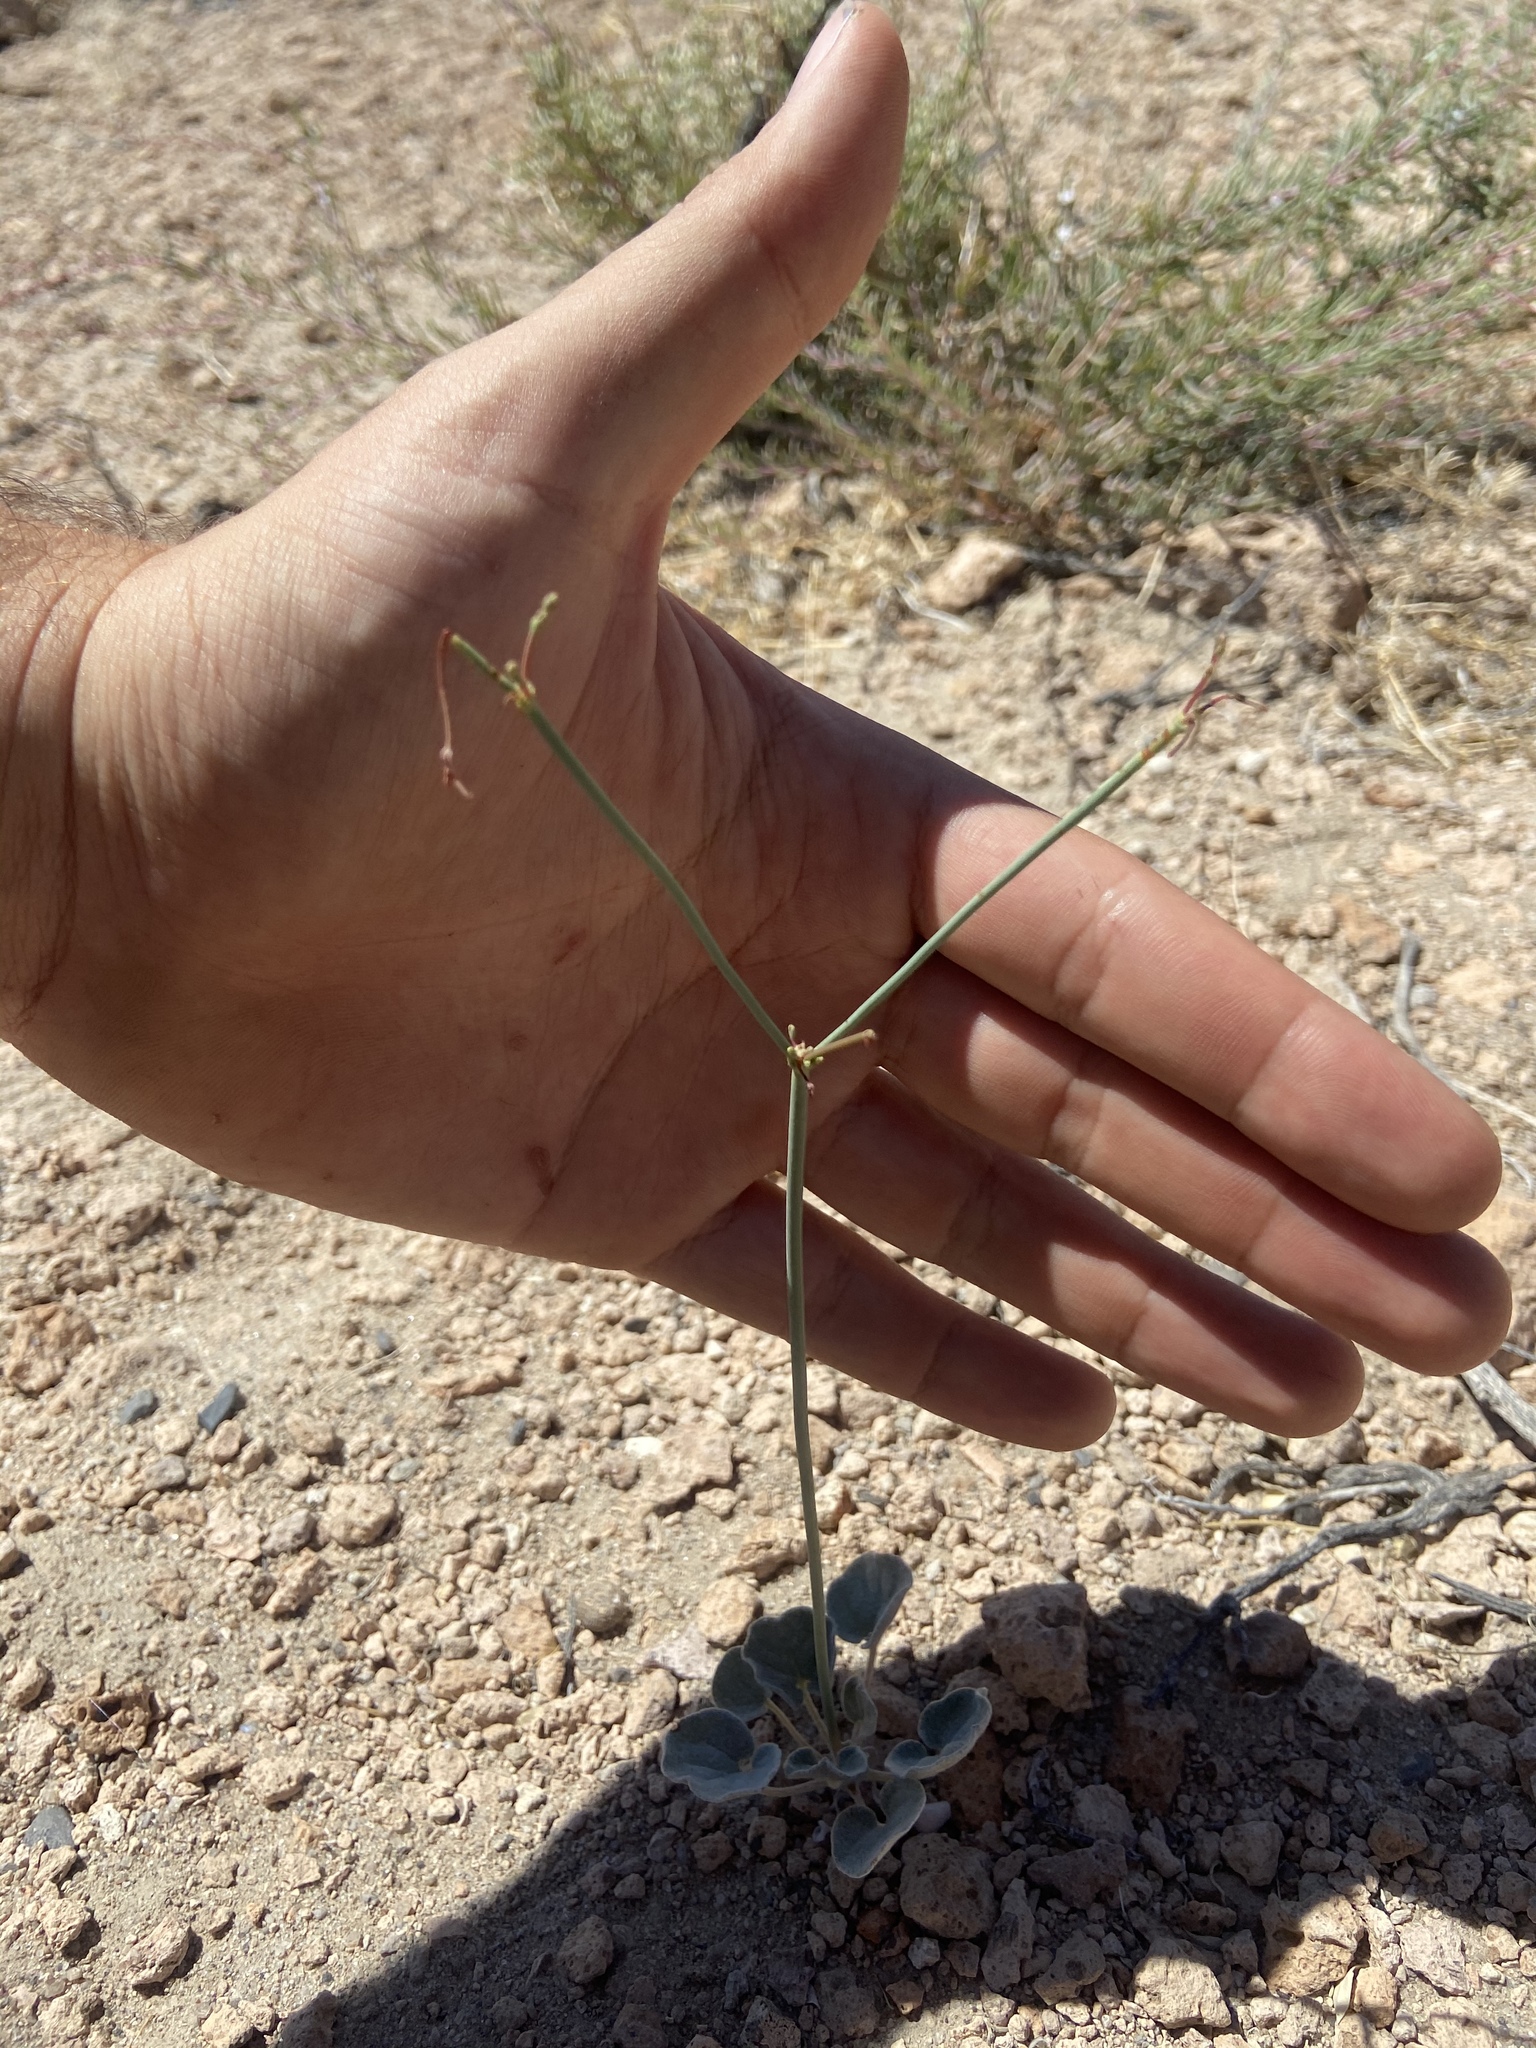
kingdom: Plantae
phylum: Tracheophyta
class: Magnoliopsida
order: Caryophyllales
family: Polygonaceae
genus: Eriogonum
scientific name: Eriogonum deflexum
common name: Skeleton-weed
